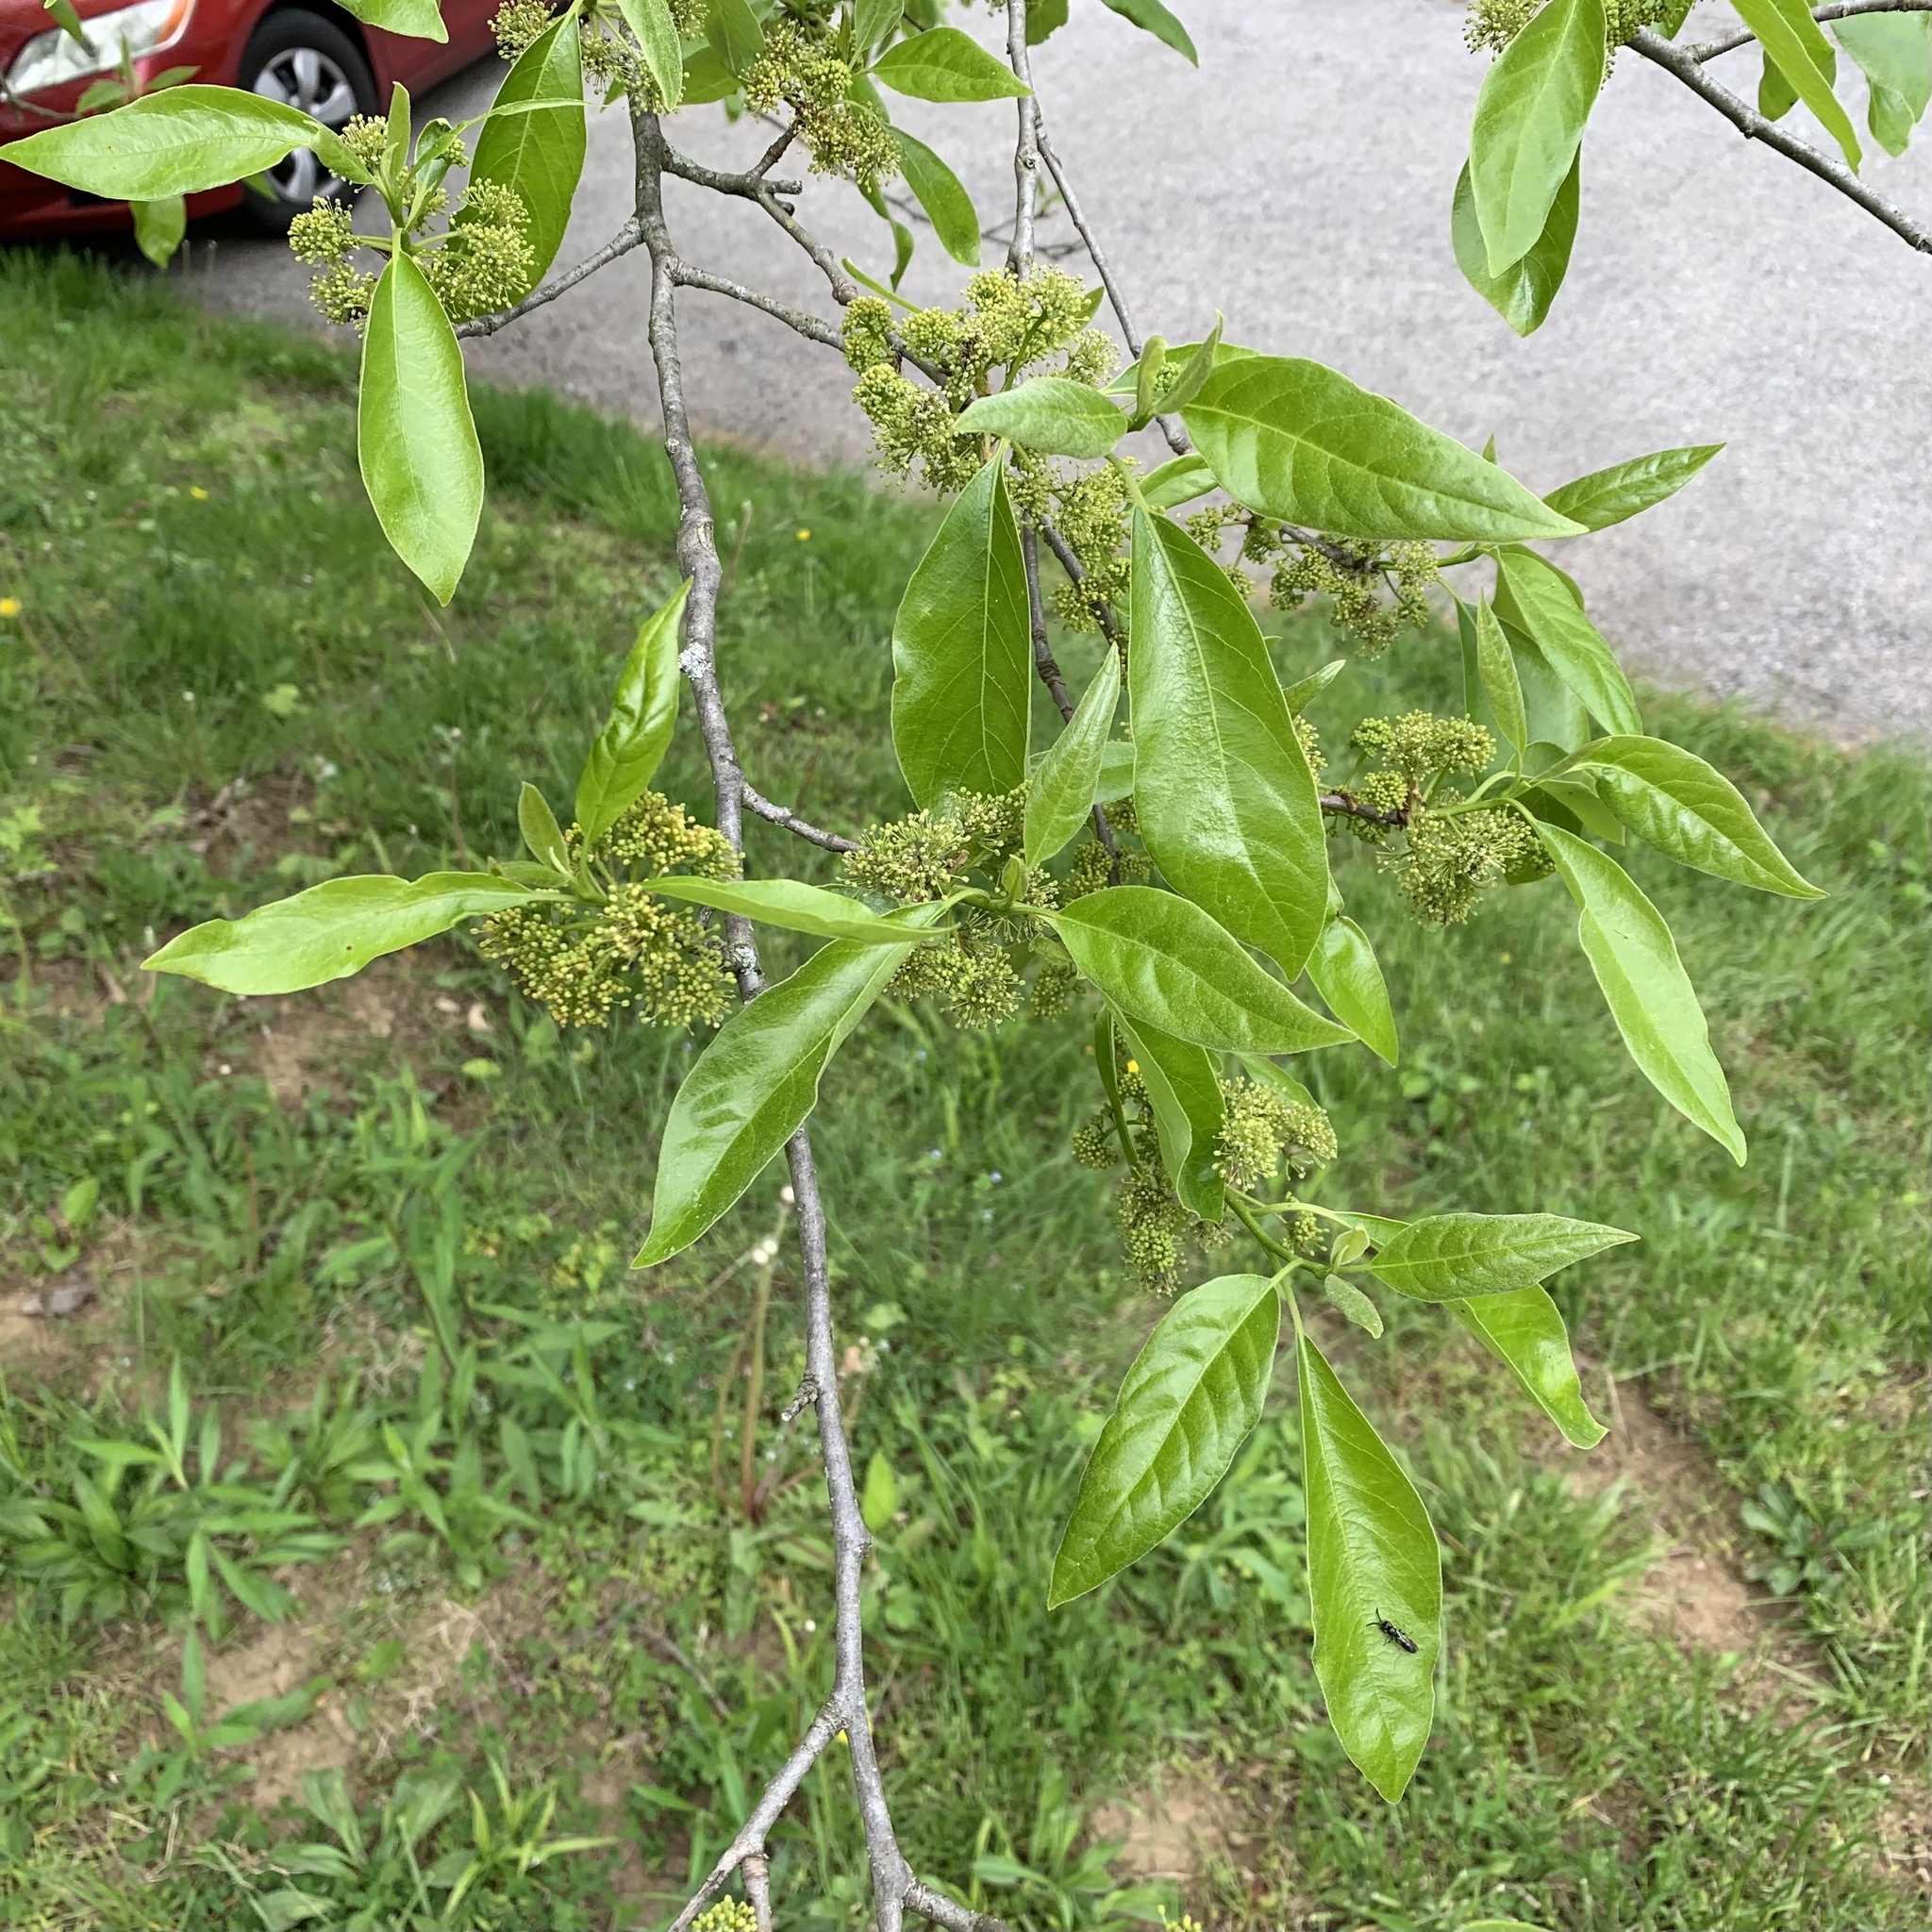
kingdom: Plantae
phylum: Tracheophyta
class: Magnoliopsida
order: Cornales
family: Nyssaceae
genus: Nyssa
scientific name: Nyssa sylvatica
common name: Black tupelo
